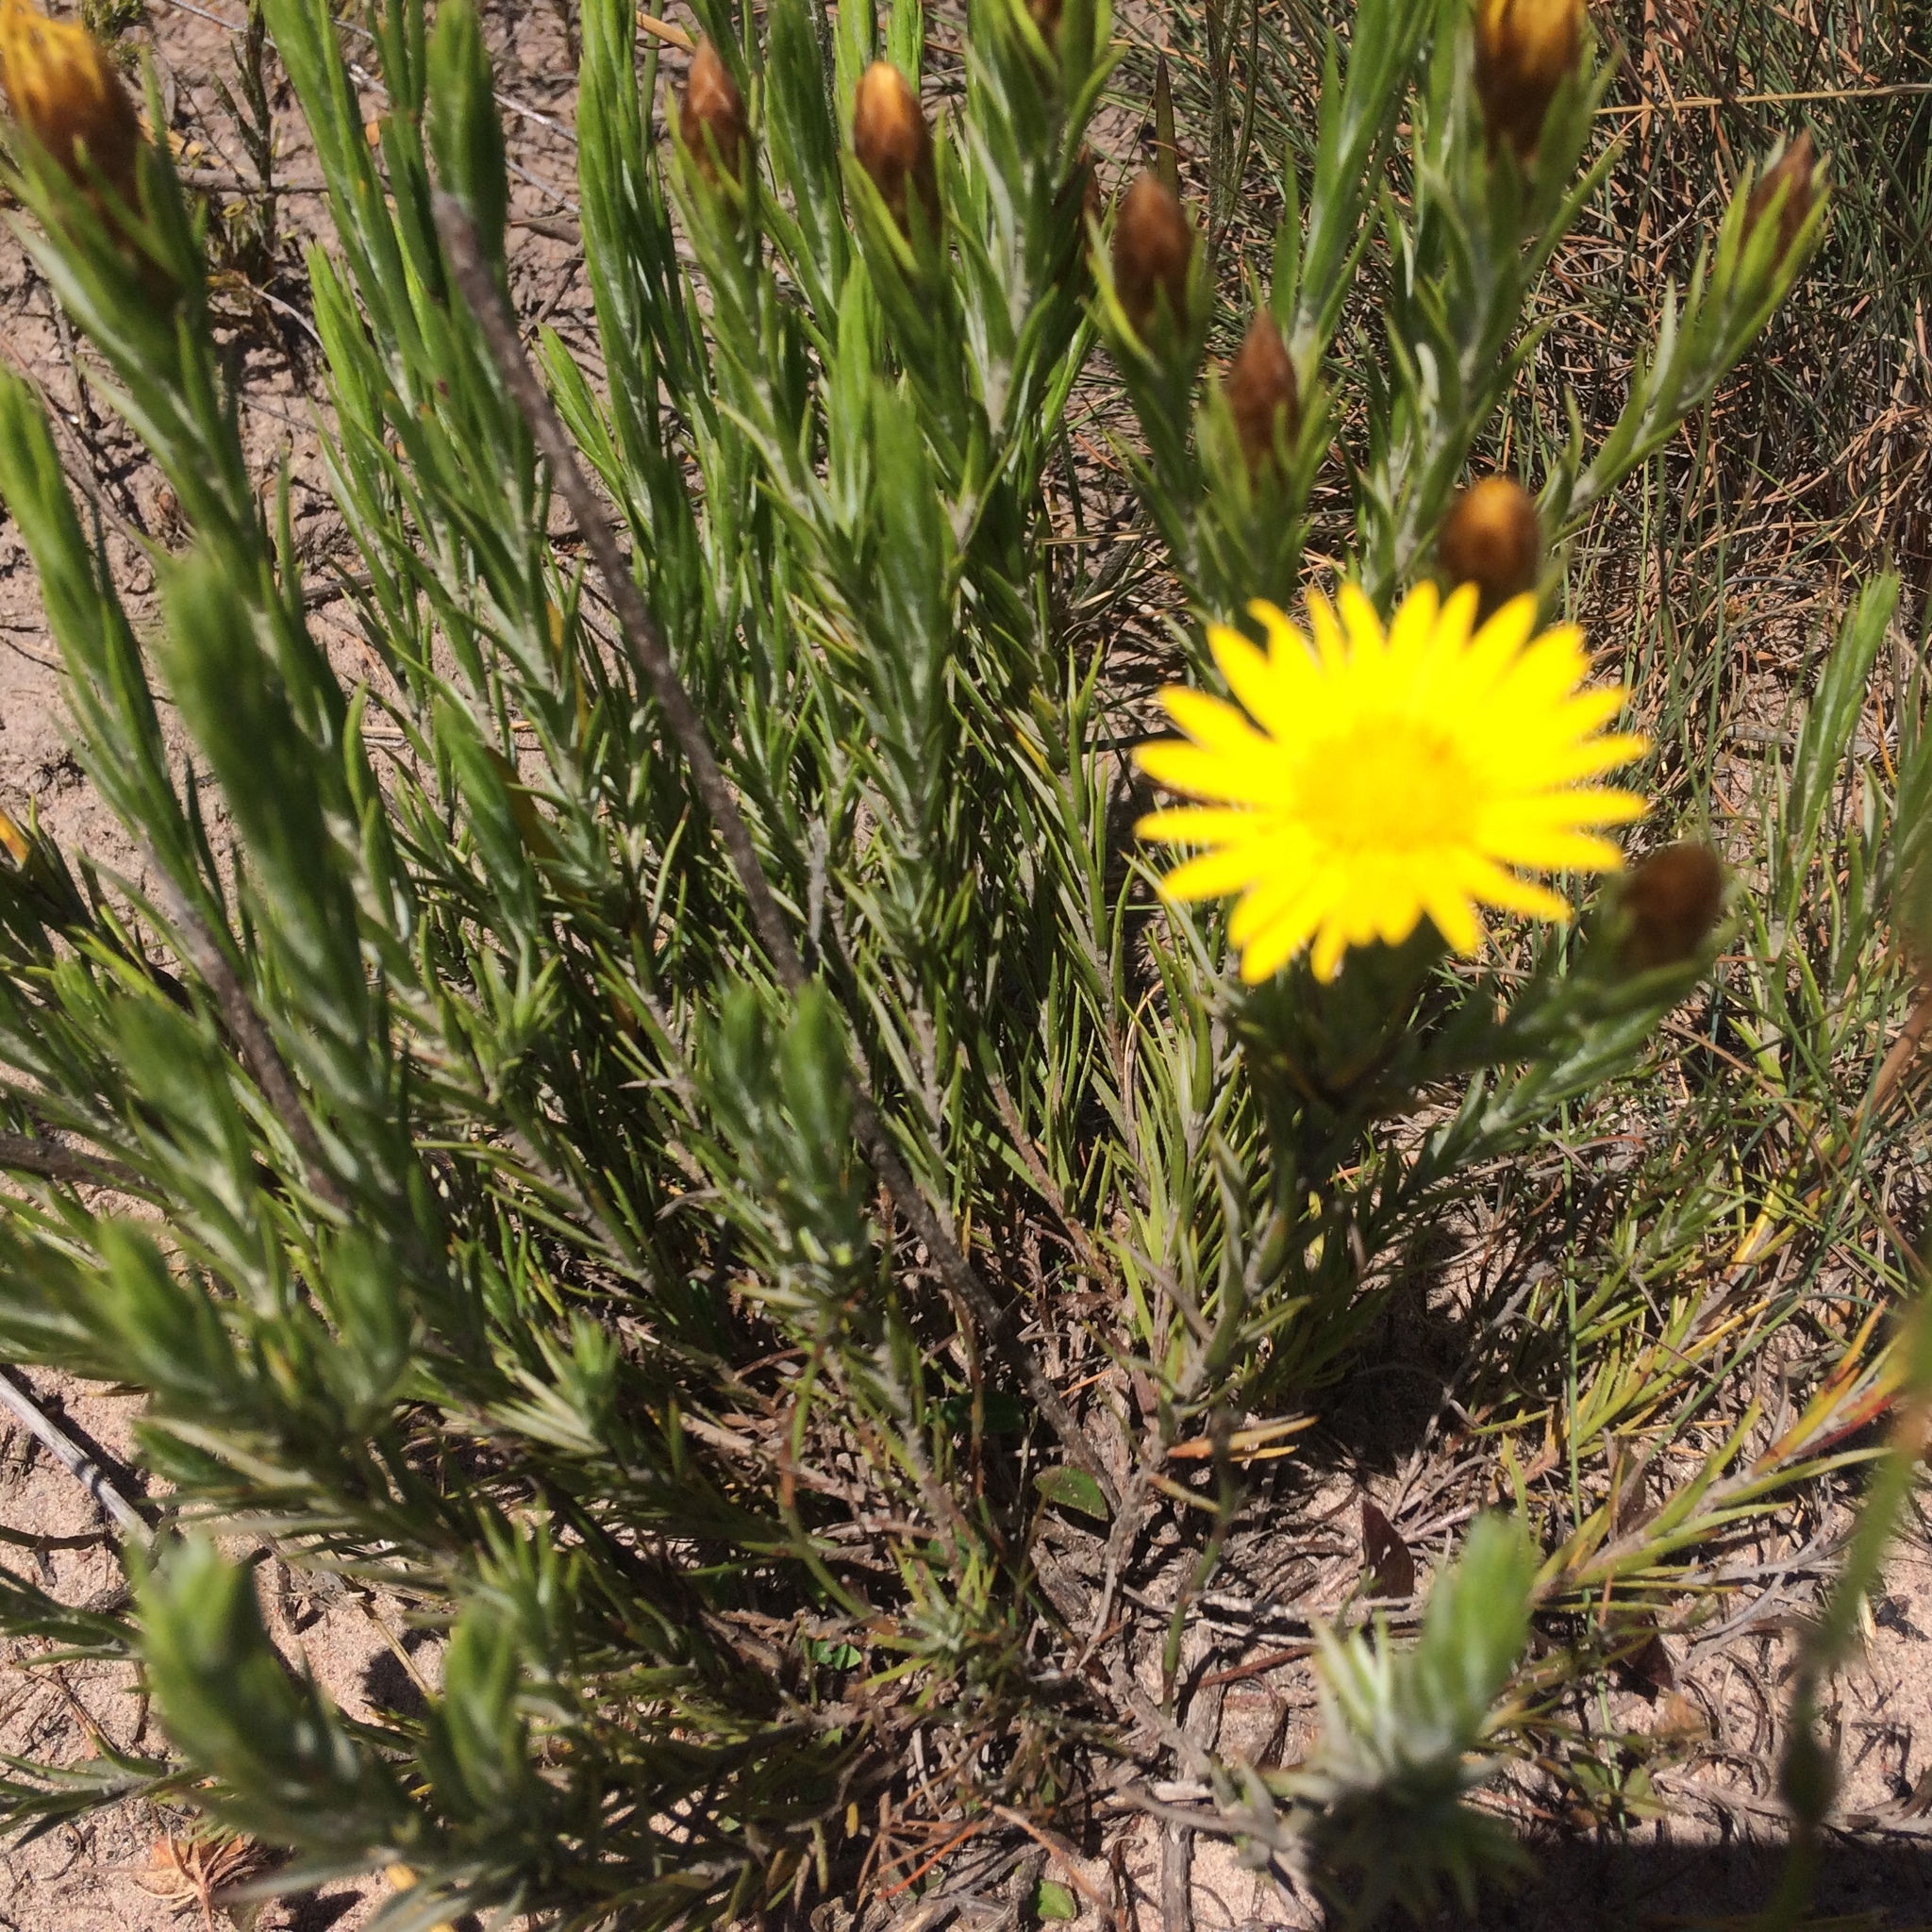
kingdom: Plantae
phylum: Tracheophyta
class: Magnoliopsida
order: Asterales
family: Asteraceae
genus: Oedera
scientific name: Oedera pungens
